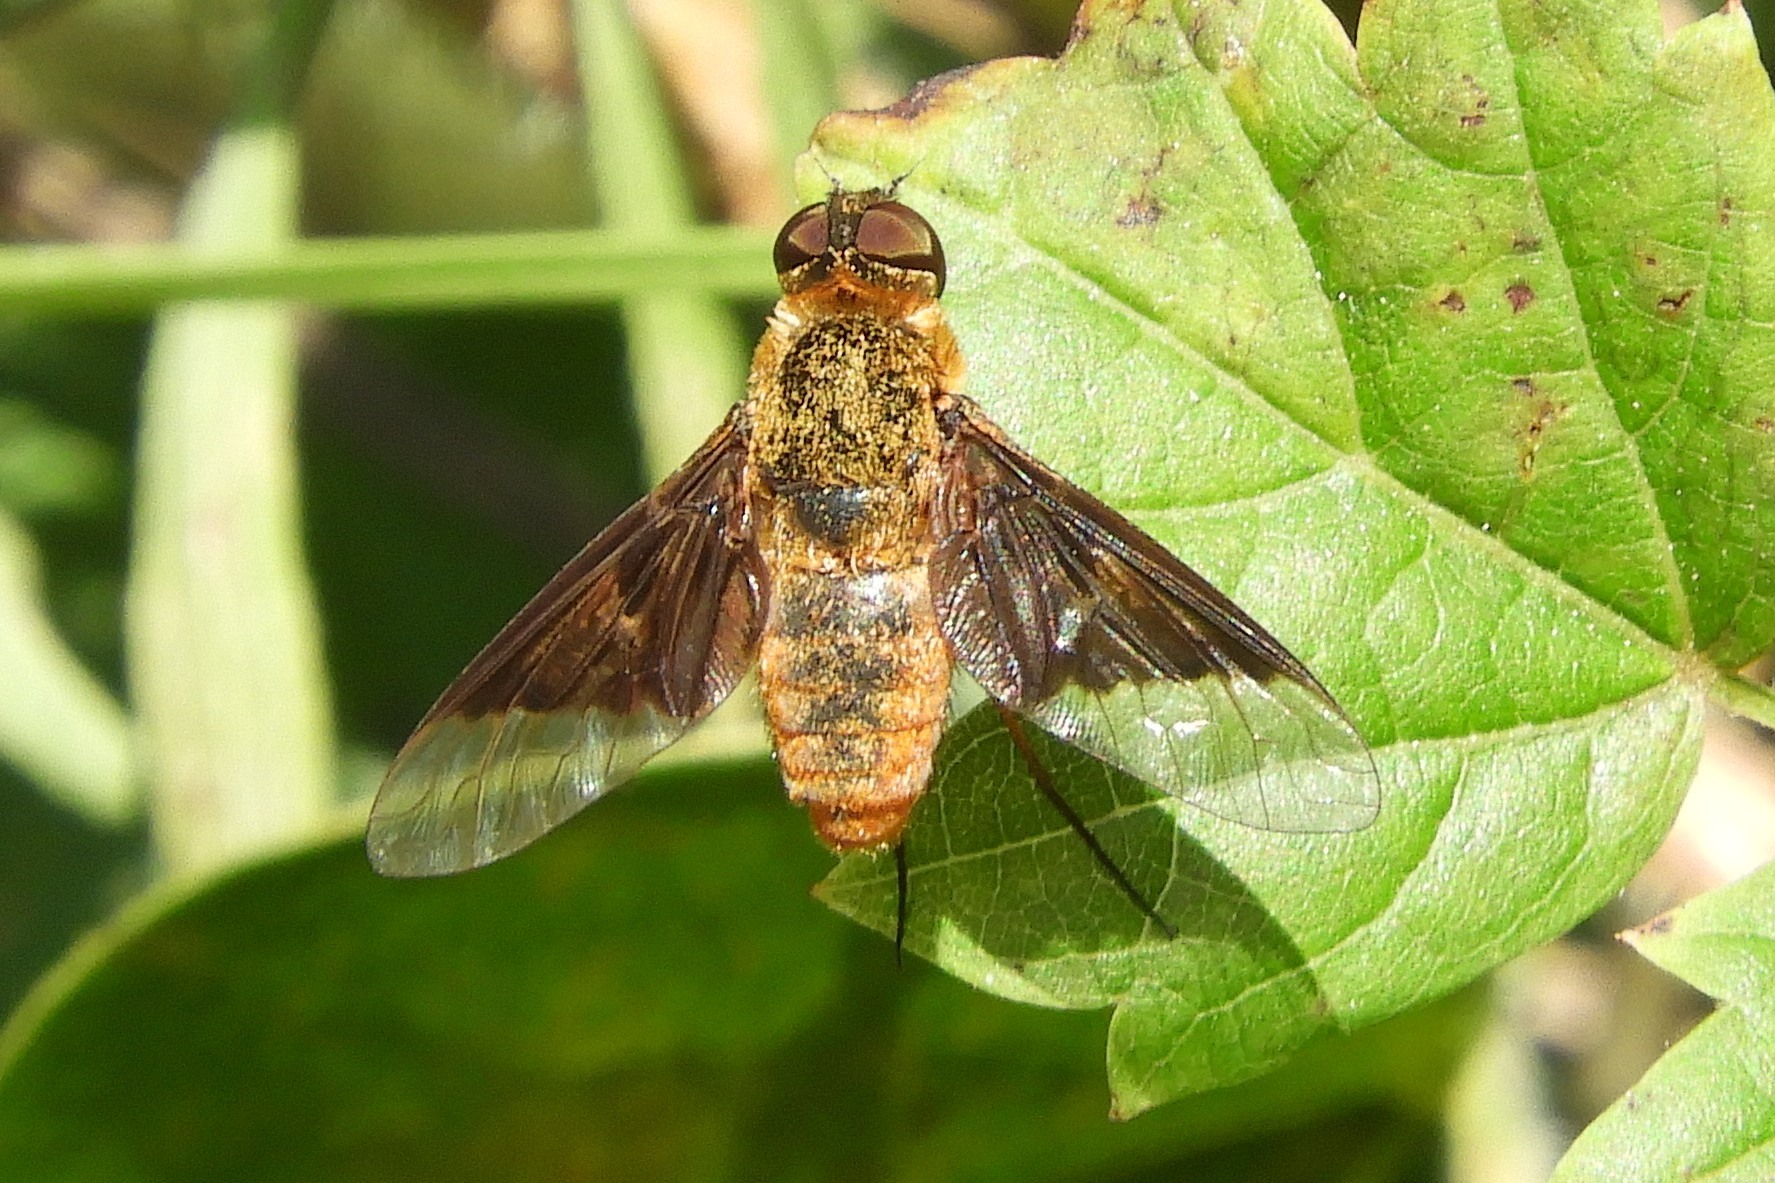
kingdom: Animalia
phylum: Arthropoda
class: Insecta
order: Diptera
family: Bombyliidae
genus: Chrysanthrax
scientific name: Chrysanthrax cypris
